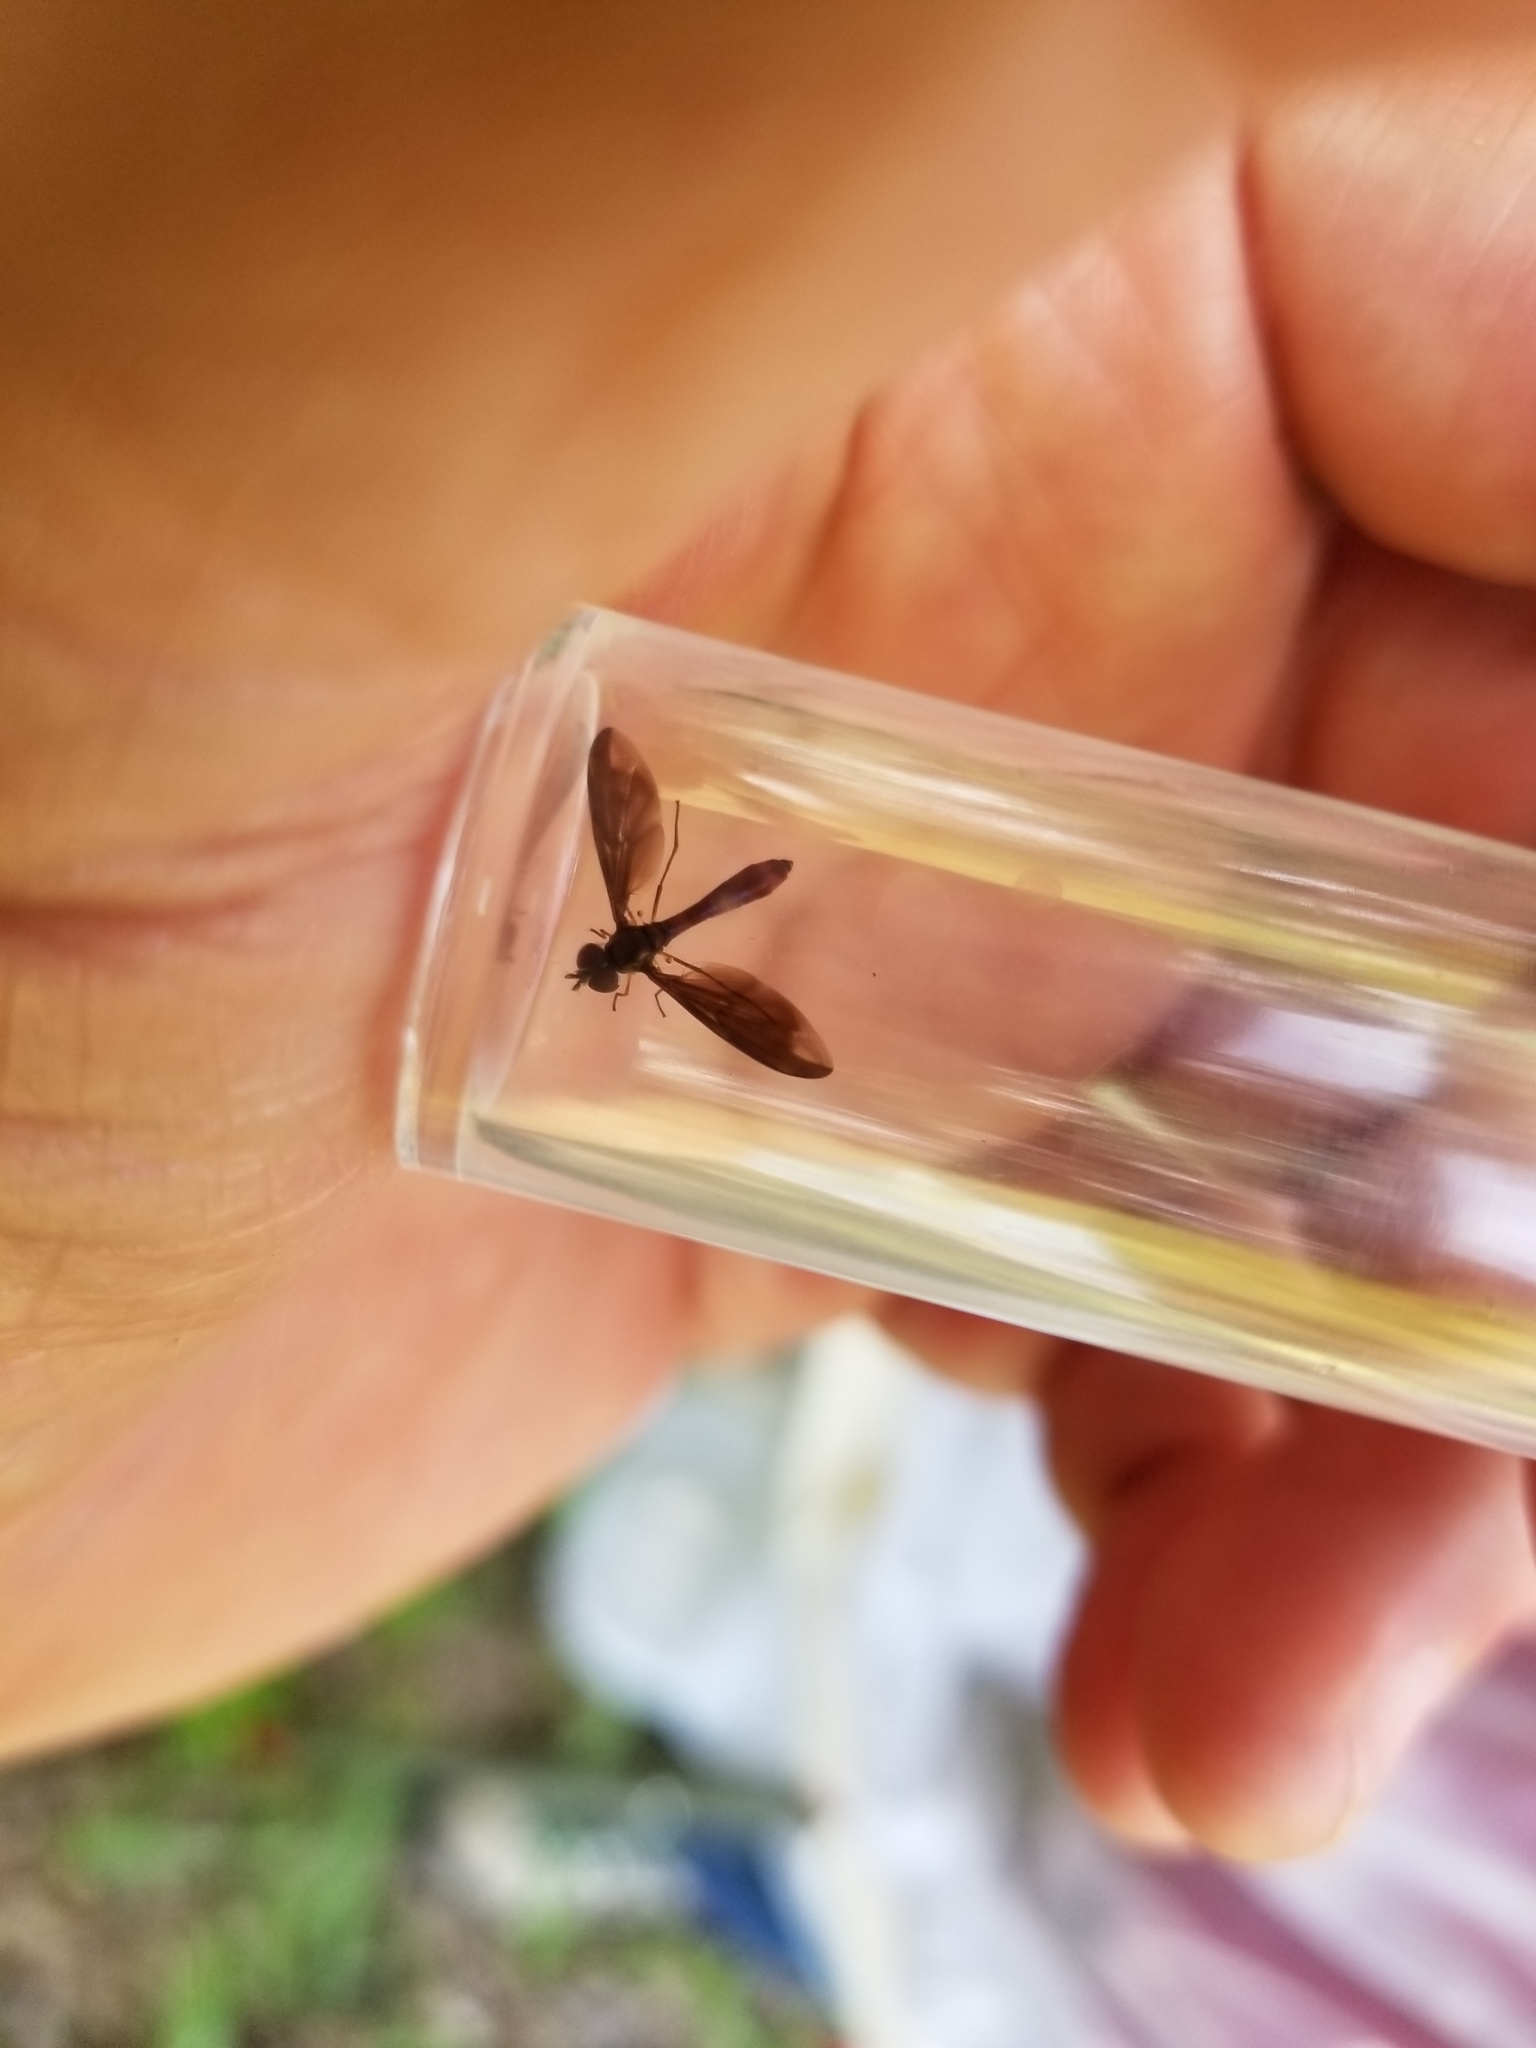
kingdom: Animalia
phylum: Arthropoda
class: Insecta
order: Diptera
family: Syrphidae
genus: Ocyptamus
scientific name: Ocyptamus fuscipennis
